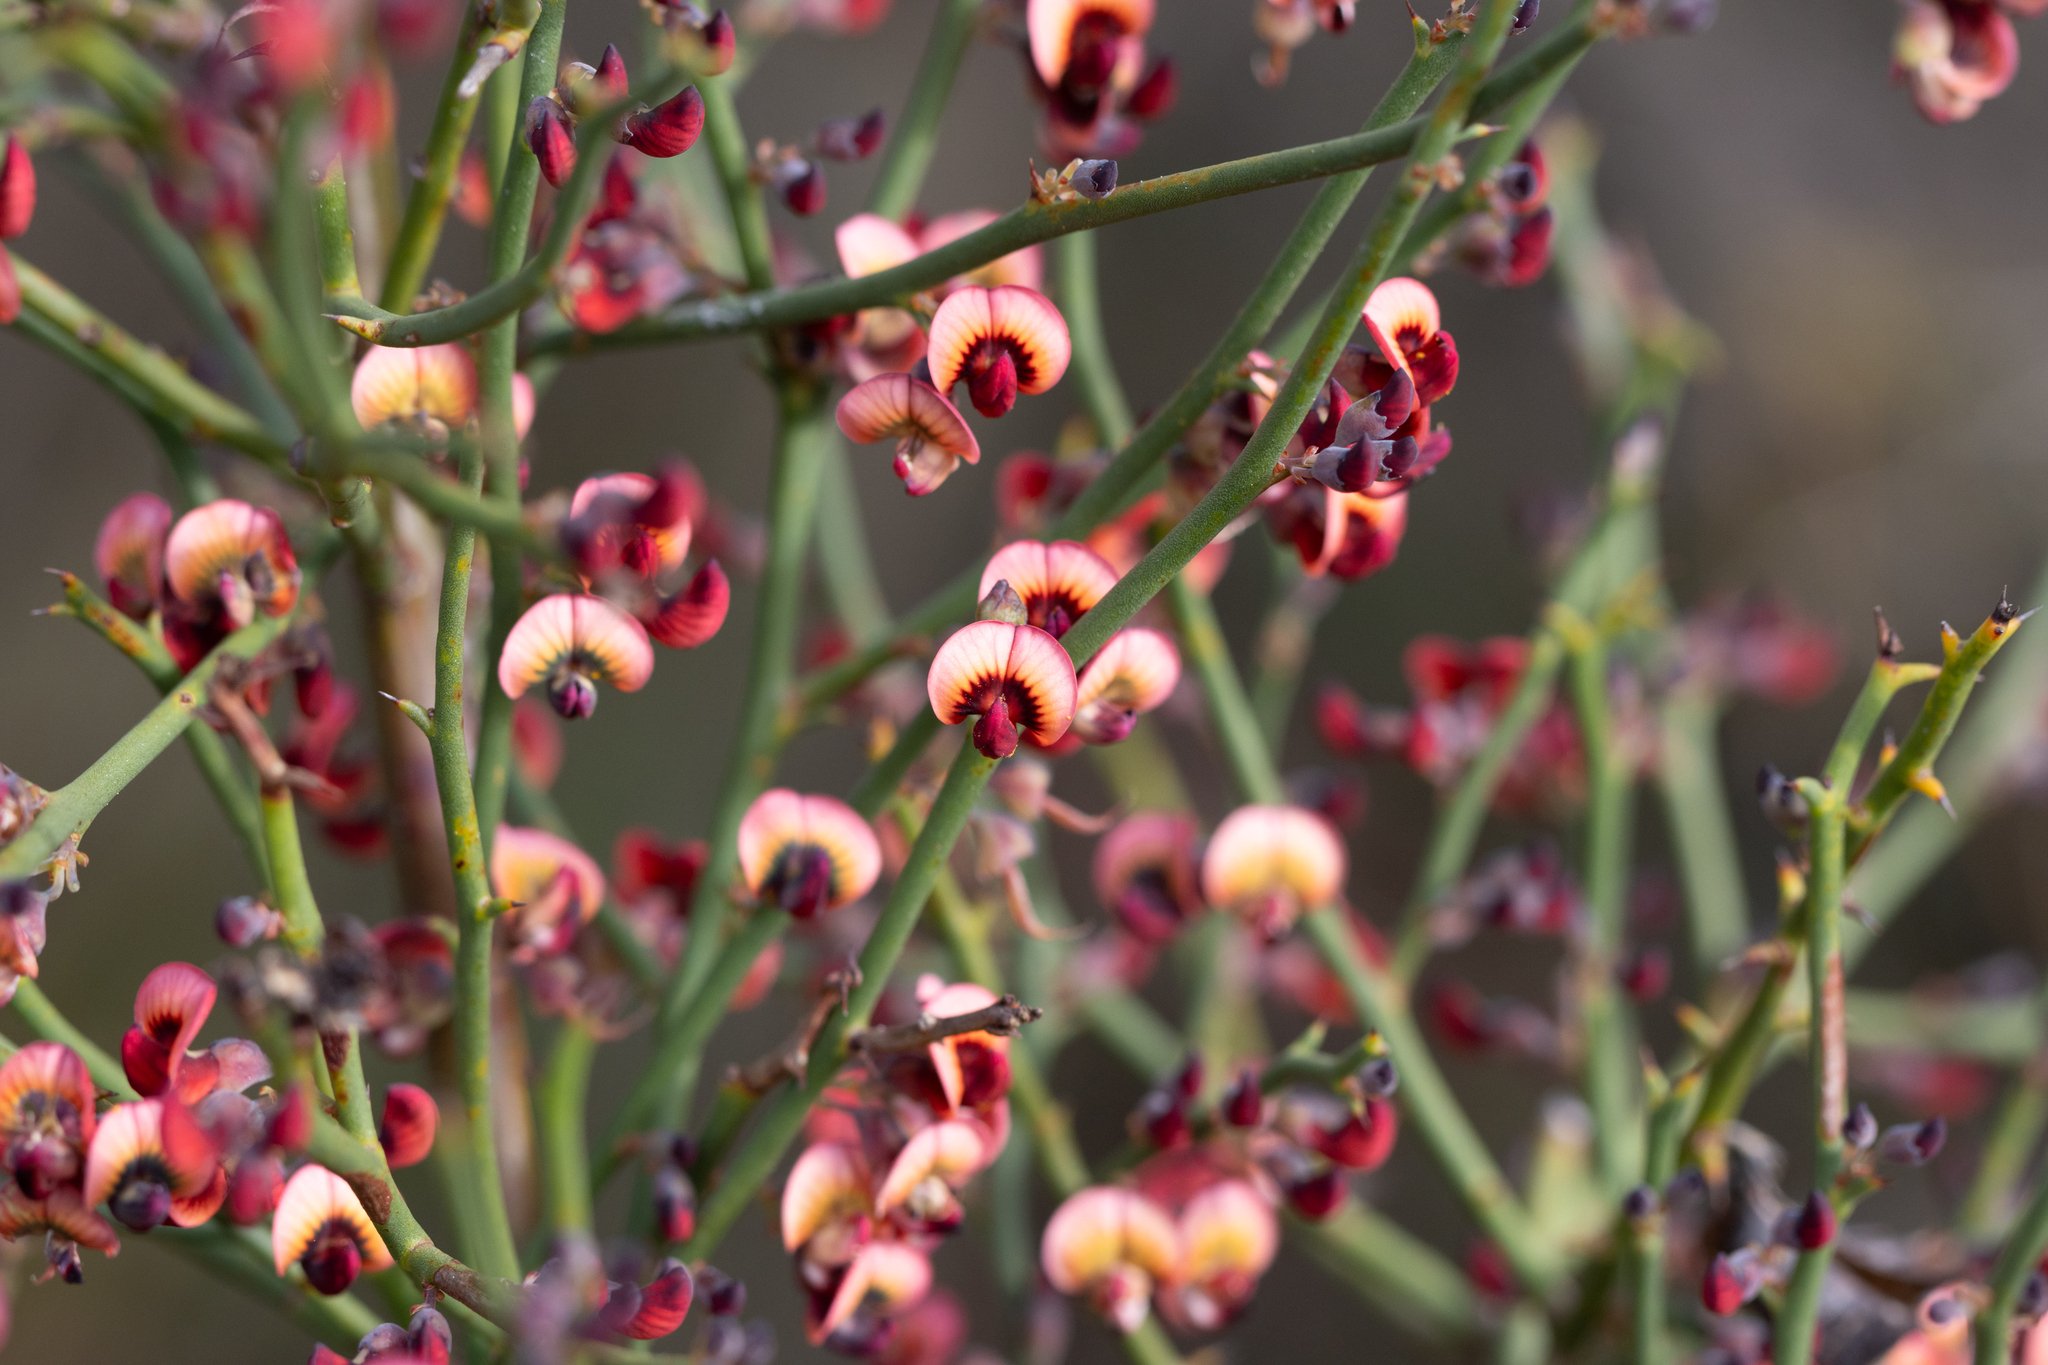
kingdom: Plantae
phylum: Tracheophyta
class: Magnoliopsida
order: Fabales
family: Fabaceae
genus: Daviesia
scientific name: Daviesia brevifolia
